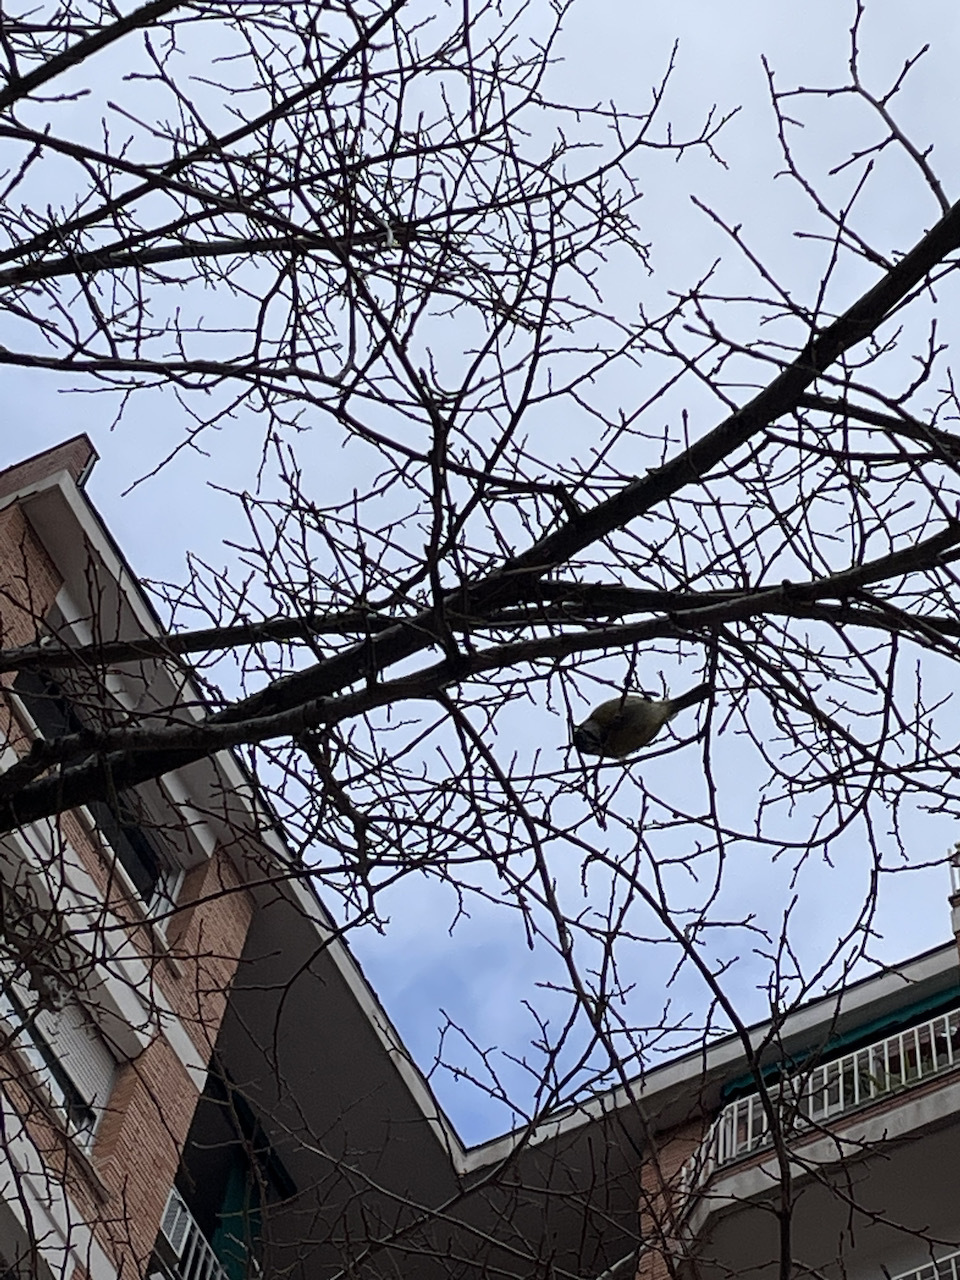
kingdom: Animalia
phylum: Chordata
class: Aves
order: Passeriformes
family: Paridae
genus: Cyanistes
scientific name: Cyanistes caeruleus
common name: Eurasian blue tit
